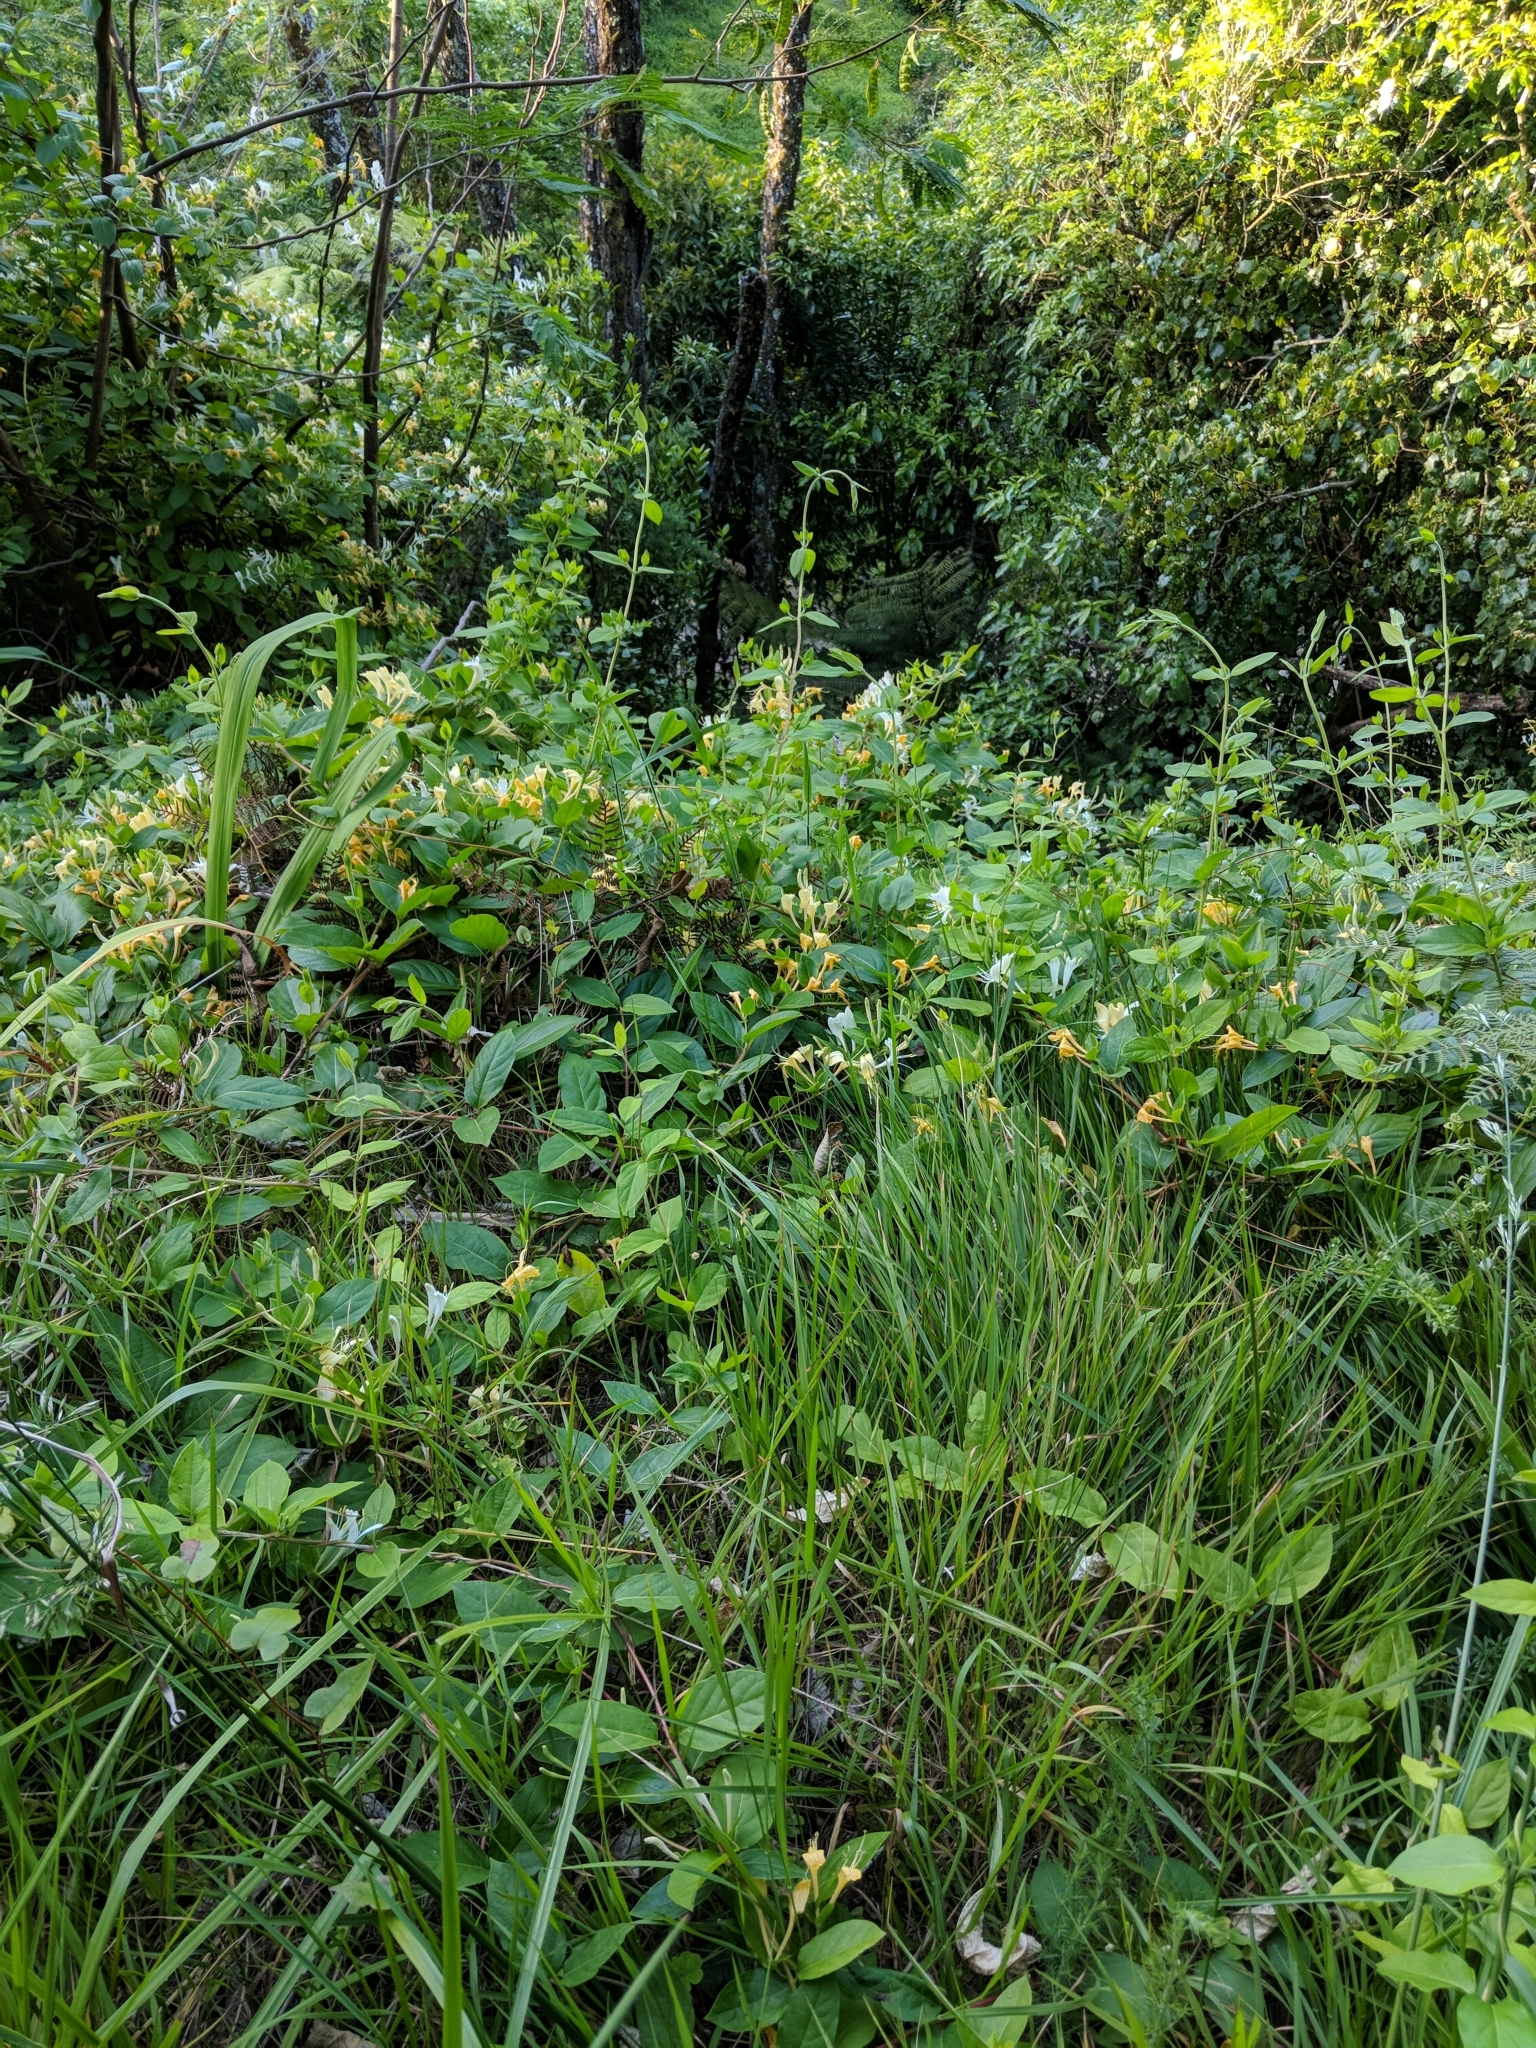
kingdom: Plantae
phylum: Tracheophyta
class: Magnoliopsida
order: Dipsacales
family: Caprifoliaceae
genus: Lonicera
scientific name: Lonicera japonica
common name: Japanese honeysuckle
